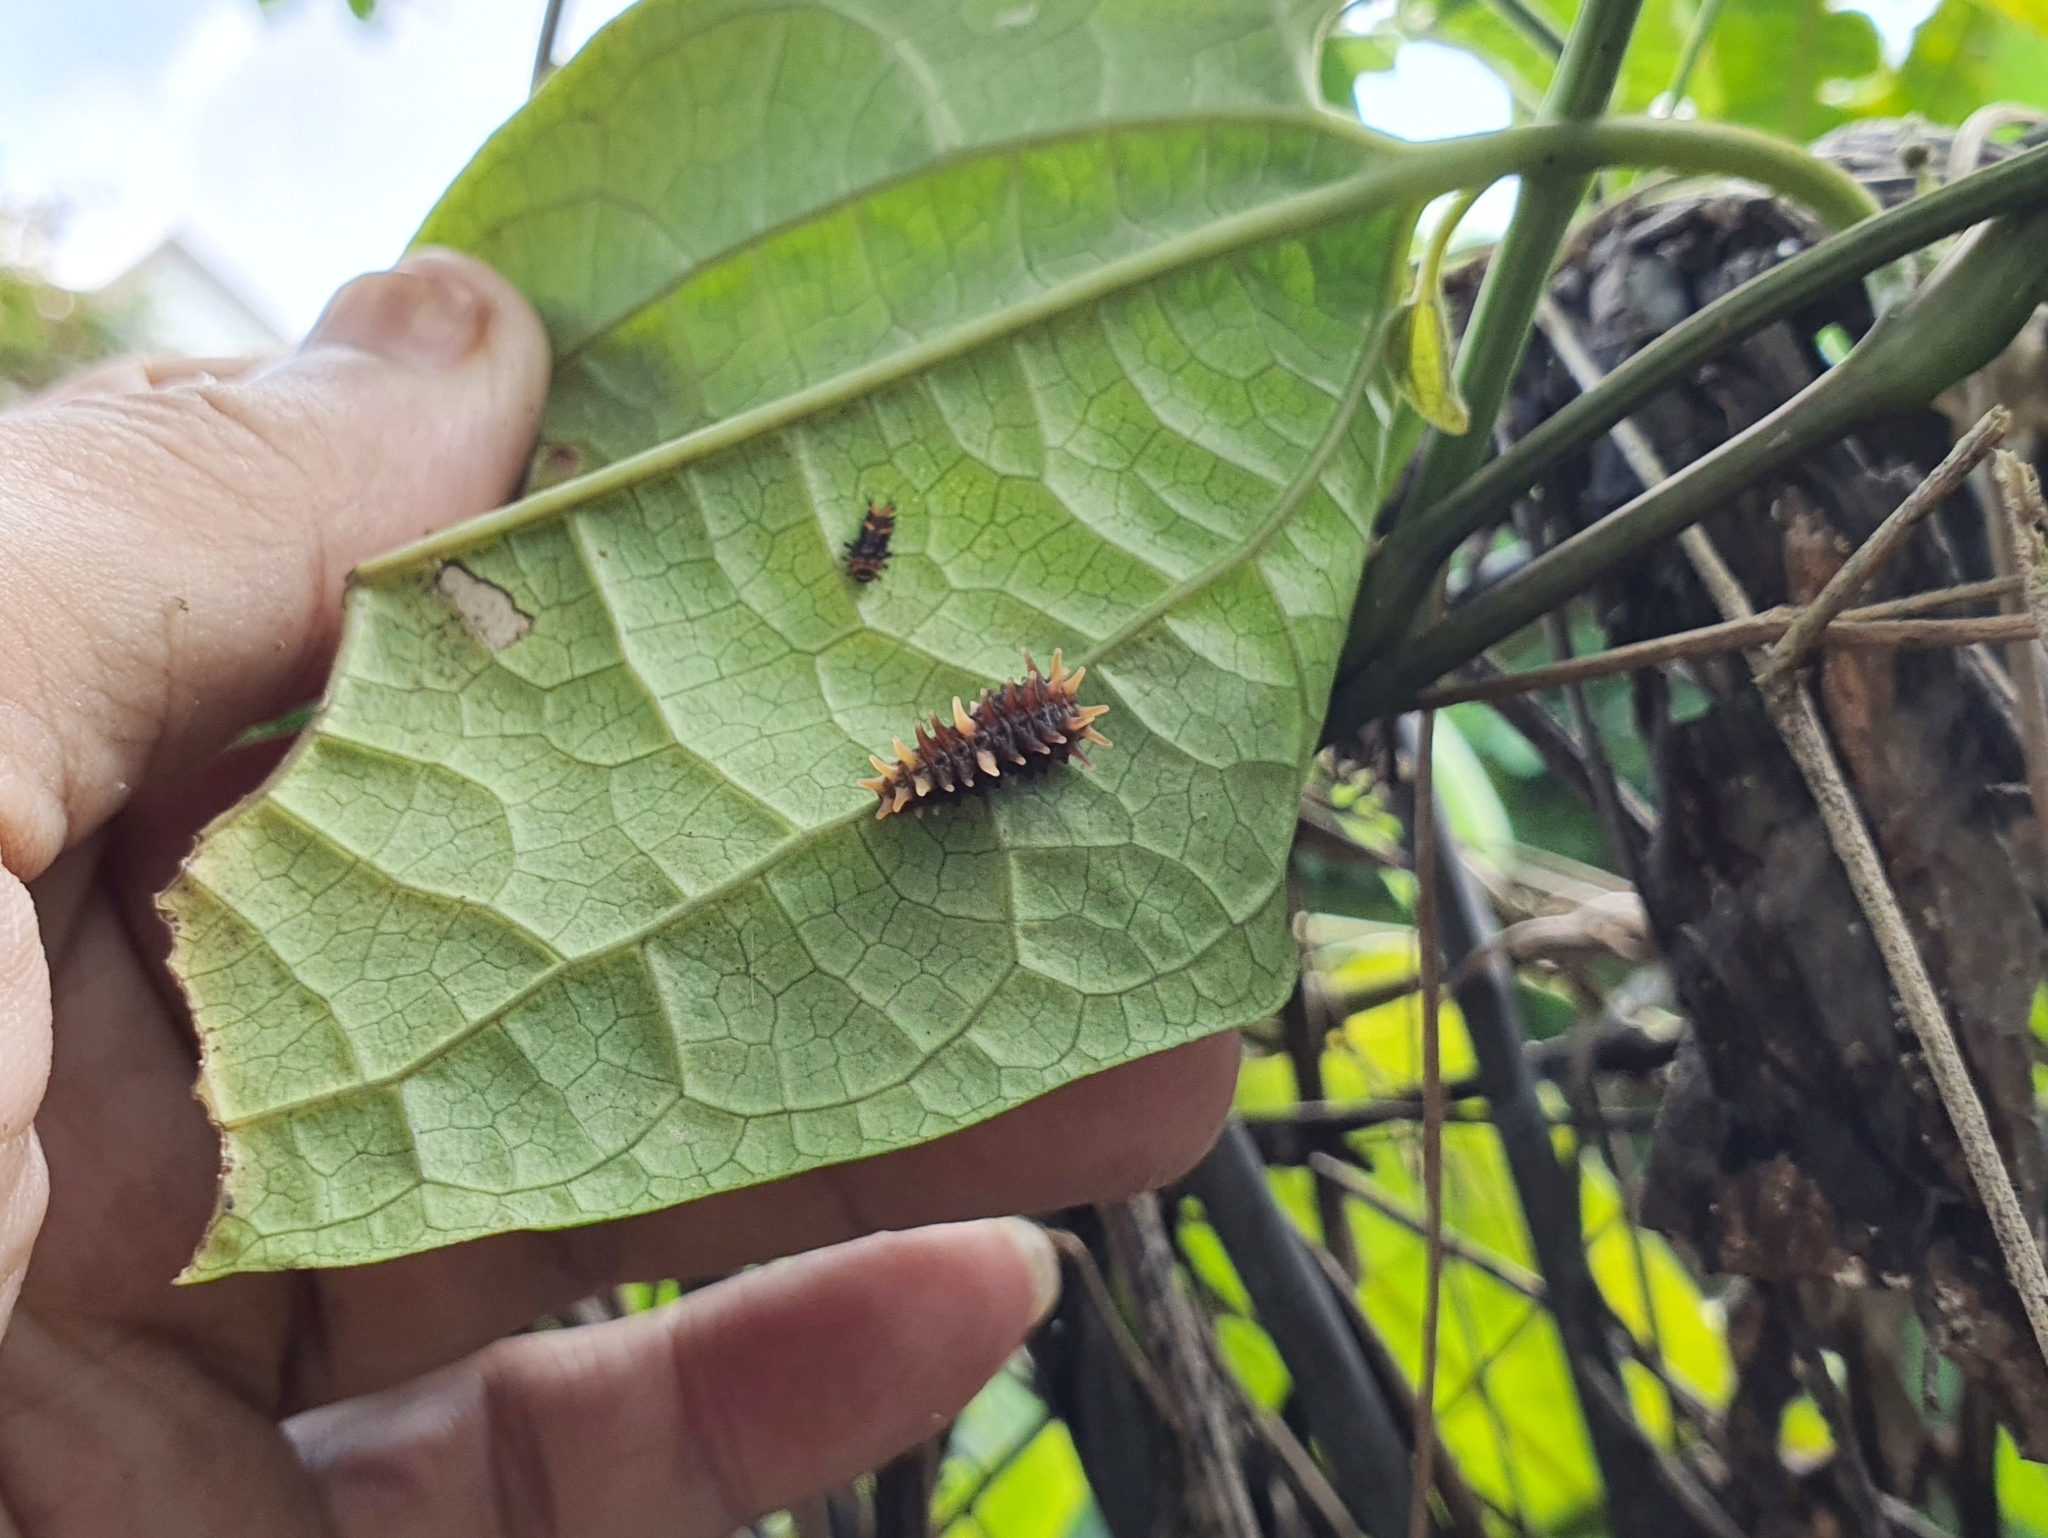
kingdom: Animalia
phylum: Arthropoda
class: Insecta
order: Lepidoptera
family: Papilionidae
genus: Troides
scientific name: Troides helena
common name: Common birdwing
